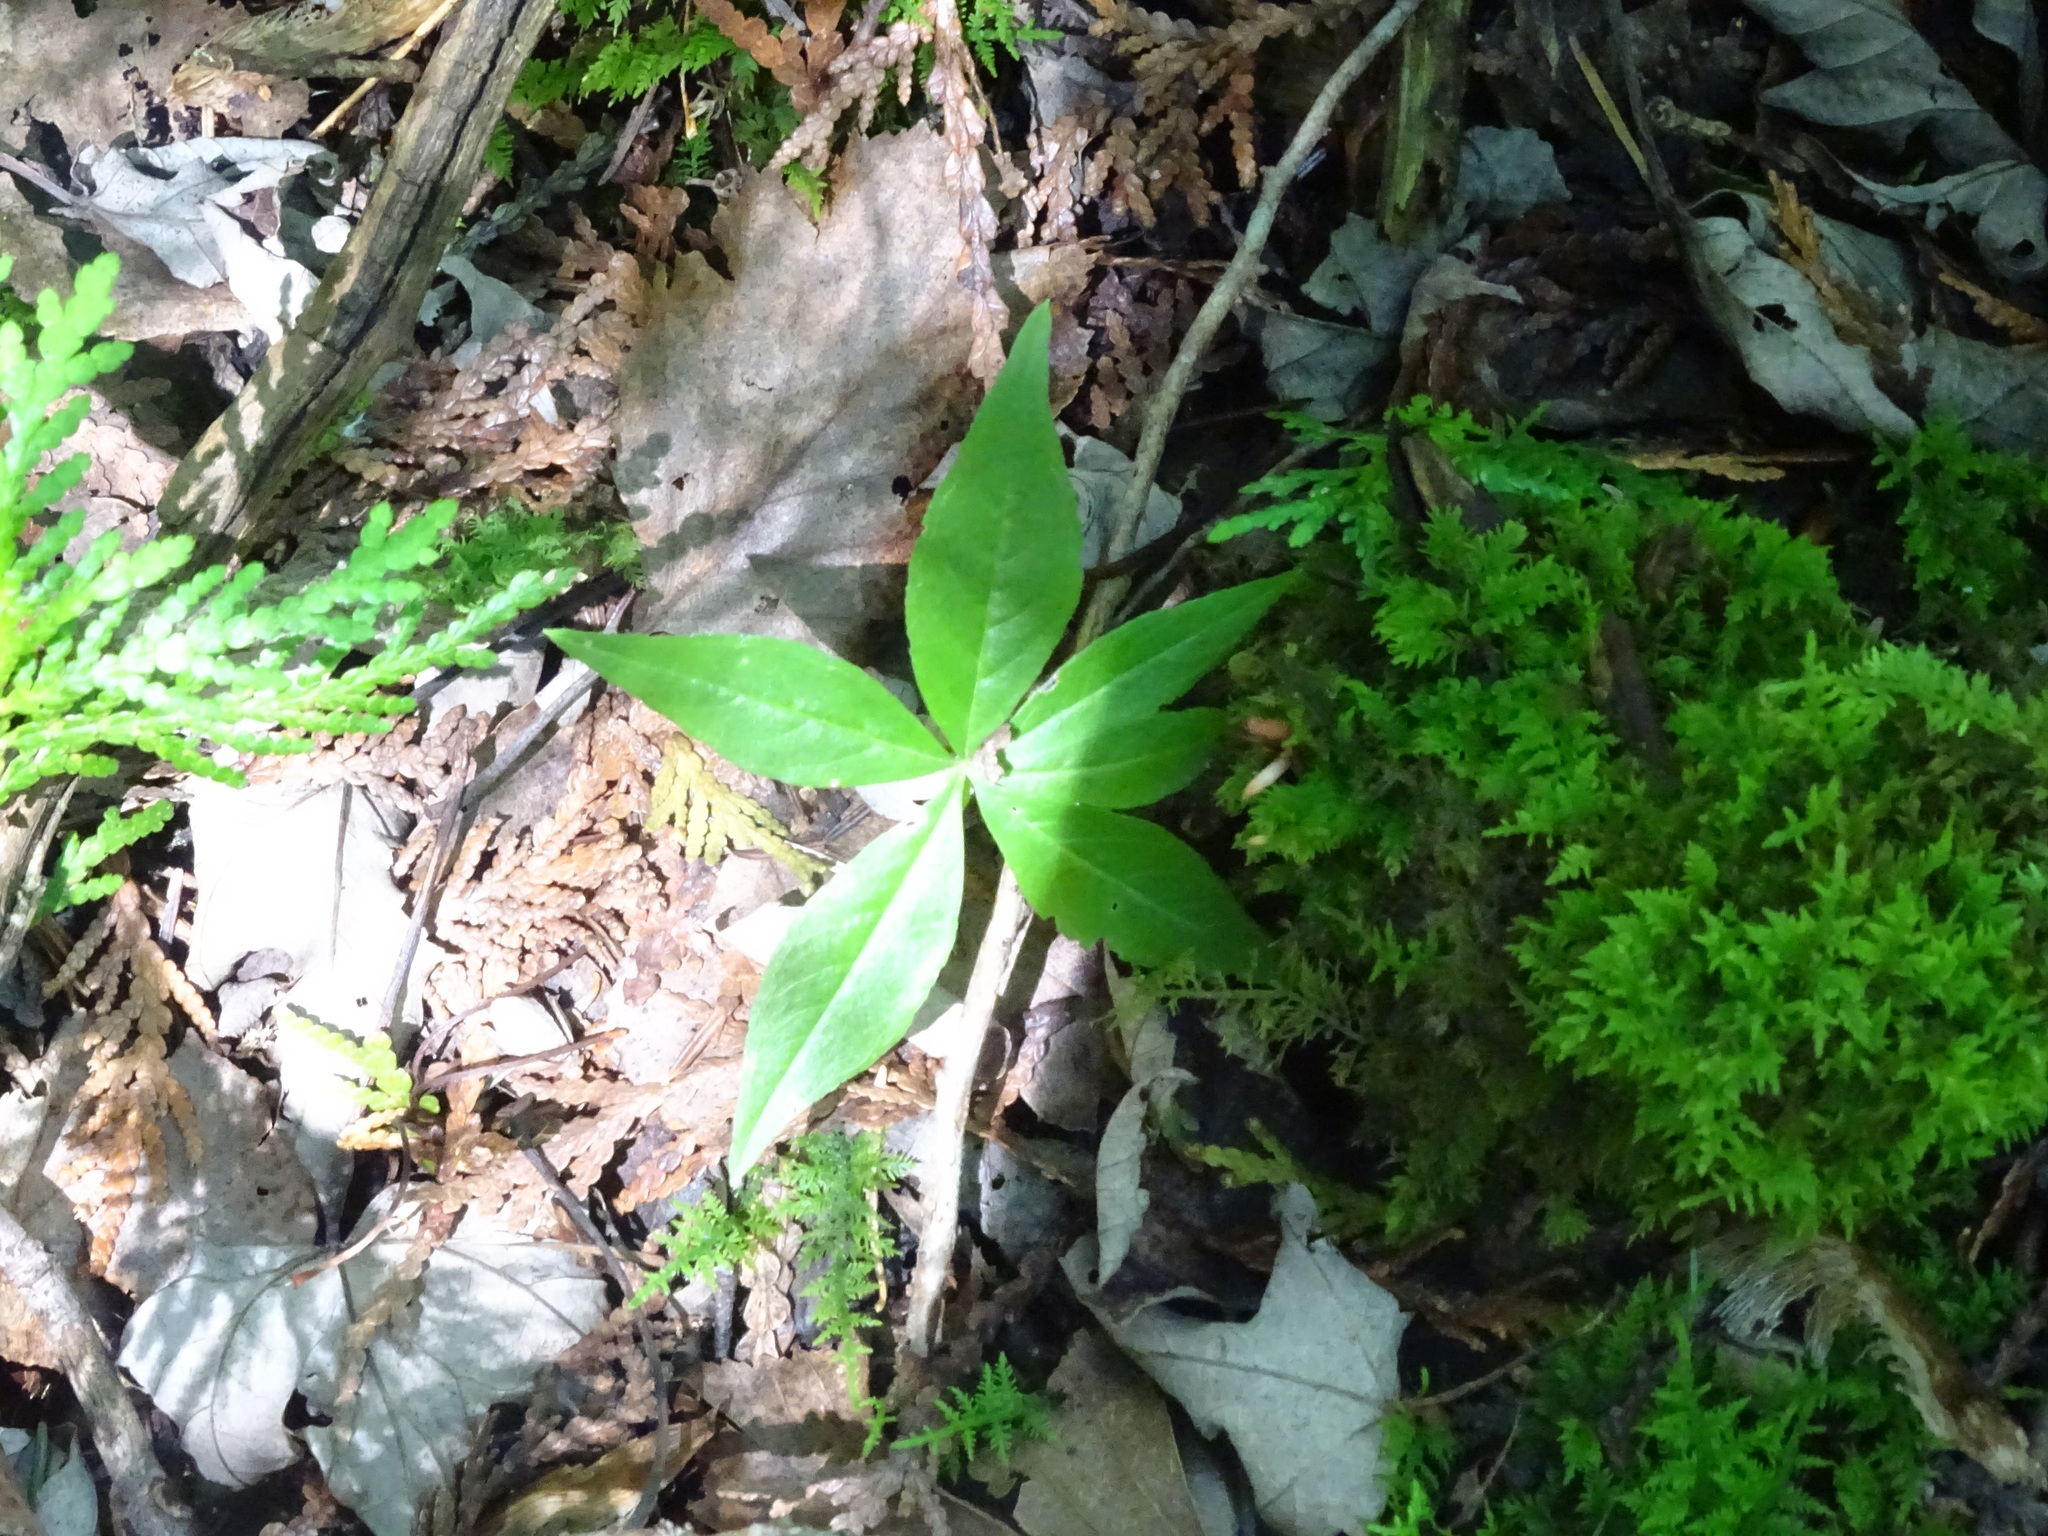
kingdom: Plantae
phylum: Tracheophyta
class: Magnoliopsida
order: Ericales
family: Primulaceae
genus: Lysimachia
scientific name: Lysimachia borealis
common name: American starflower
